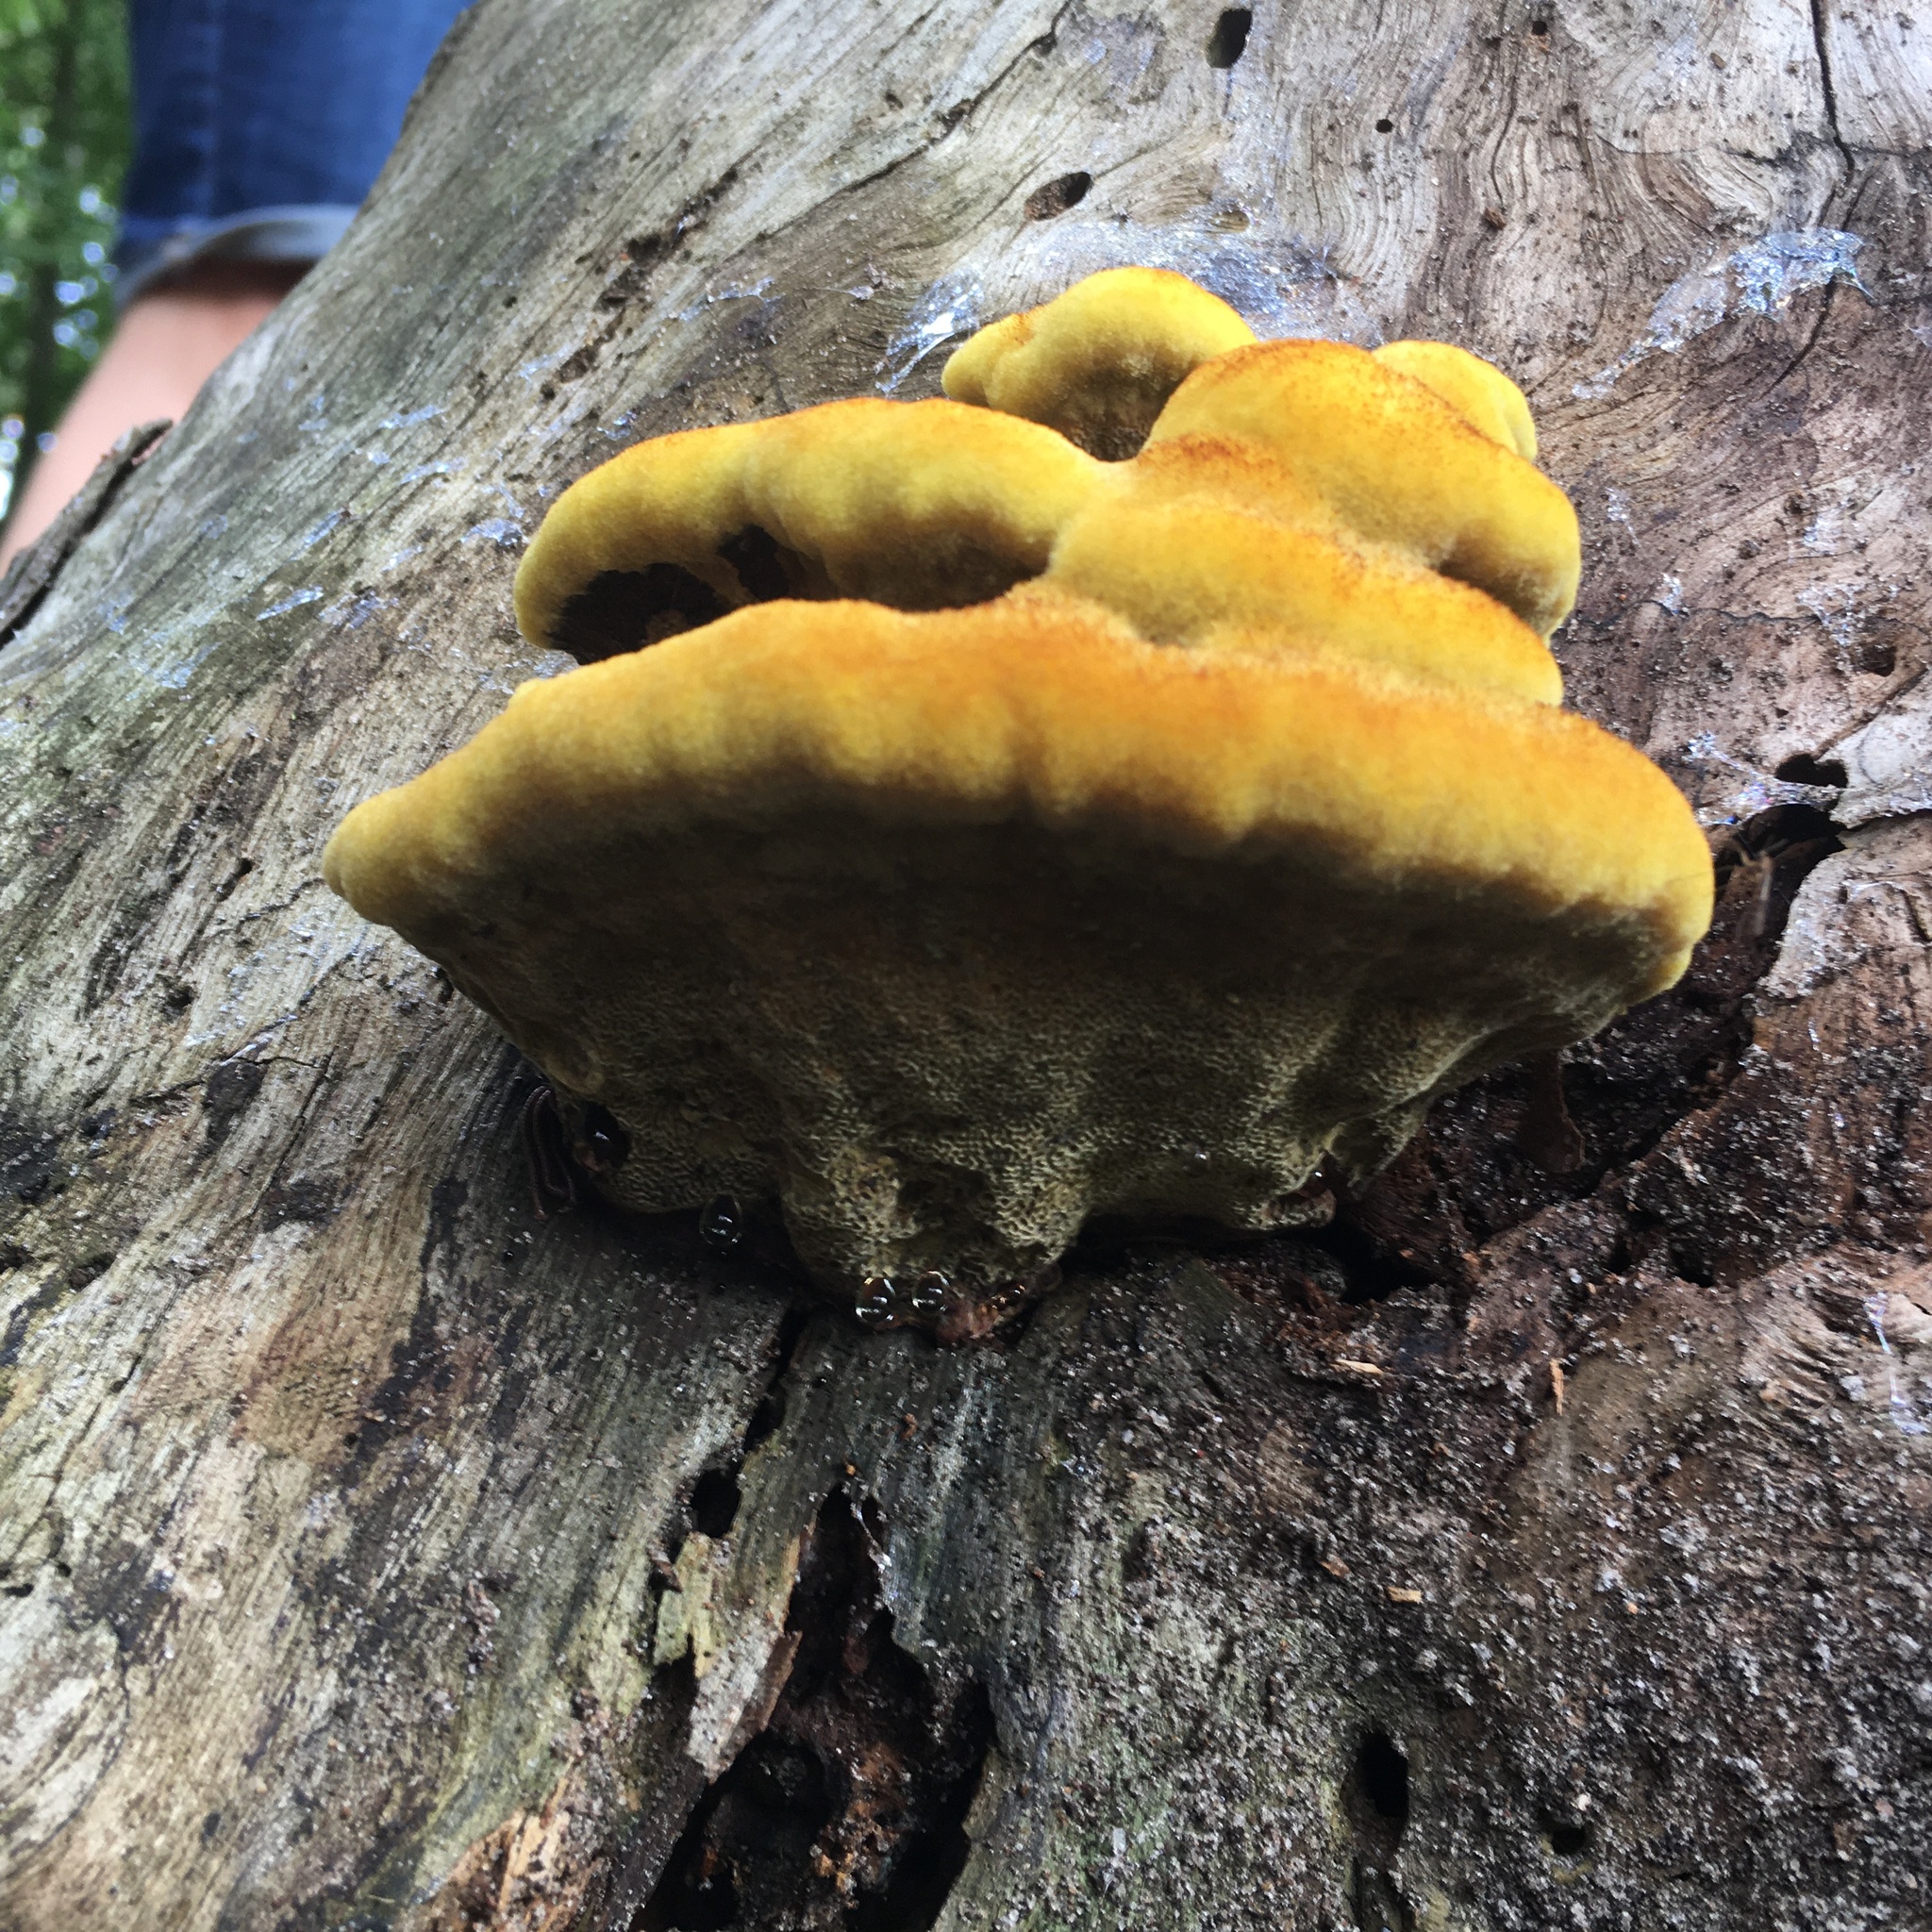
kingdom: Fungi
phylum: Basidiomycota
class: Agaricomycetes
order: Polyporales
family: Laetiporaceae
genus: Phaeolus
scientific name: Phaeolus schweinitzii
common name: Dyer's mazegill
